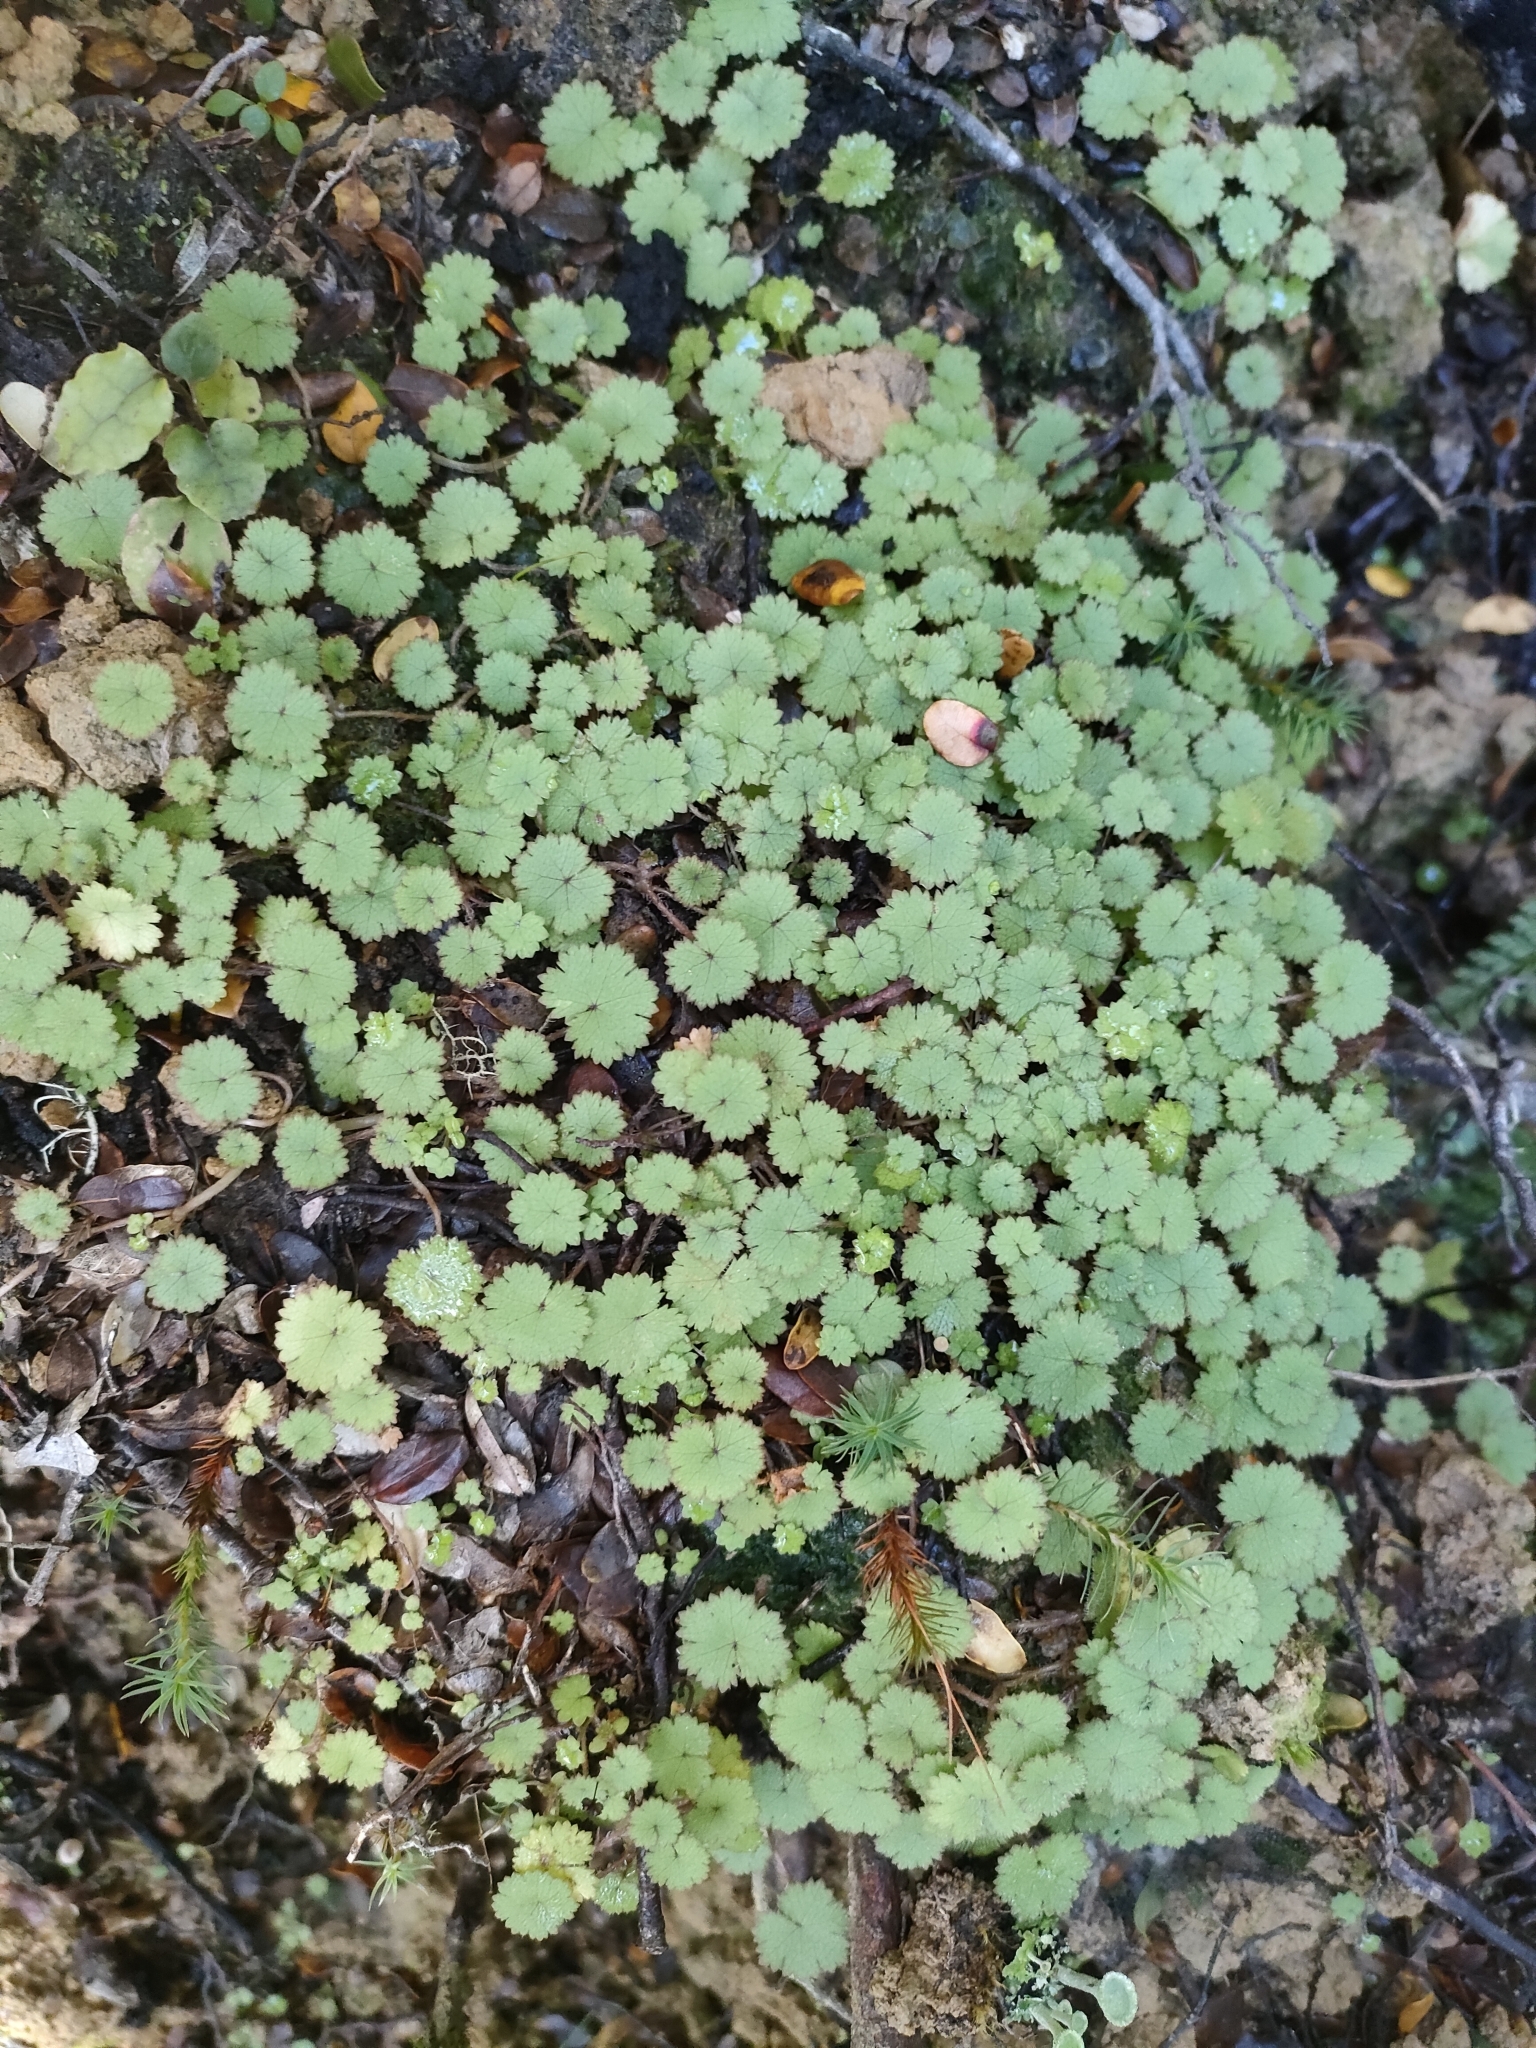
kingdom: Plantae
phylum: Tracheophyta
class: Magnoliopsida
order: Apiales
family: Araliaceae
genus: Hydrocotyle
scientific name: Hydrocotyle moschata
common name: Hairy pennywort
